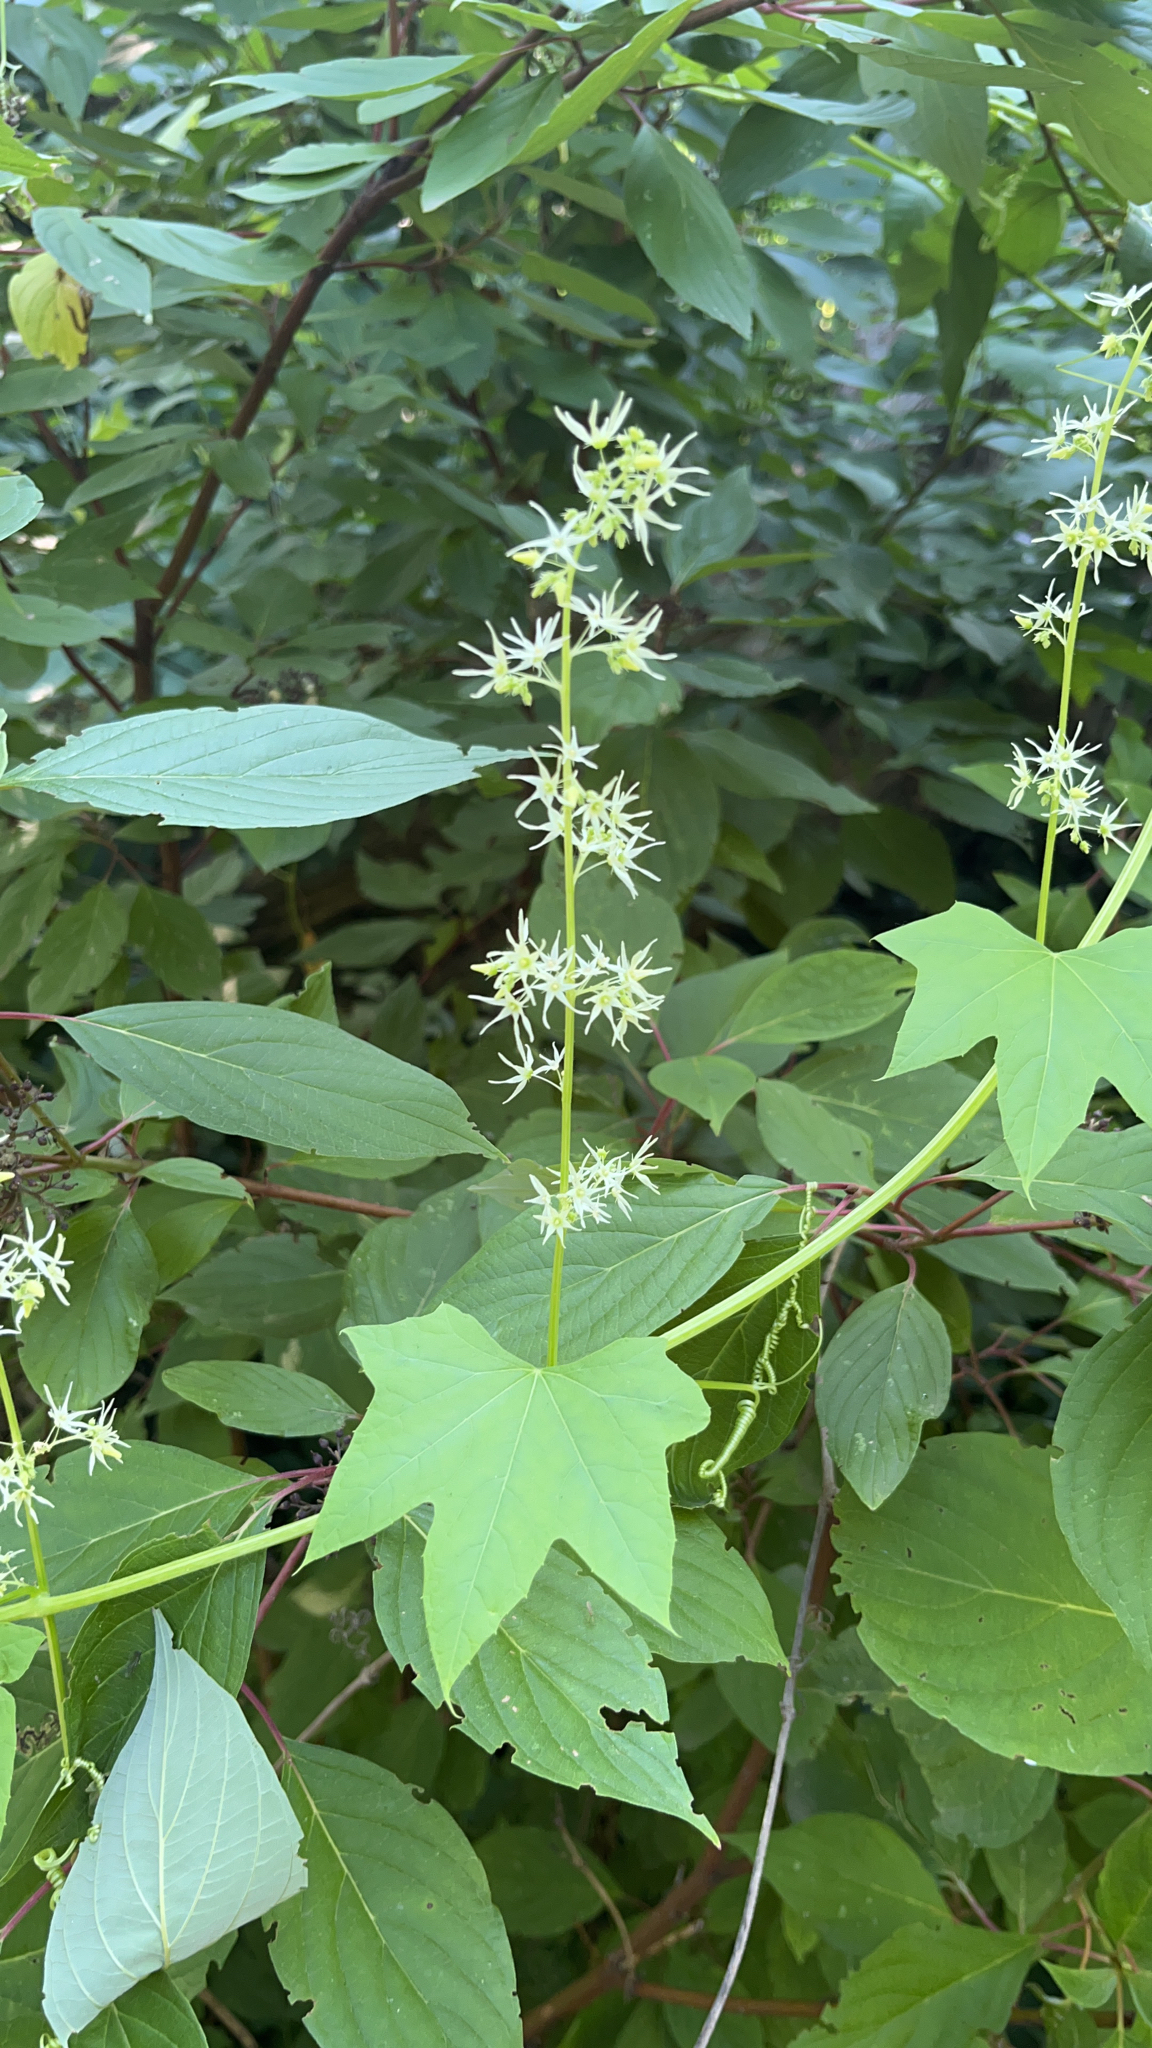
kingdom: Plantae
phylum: Tracheophyta
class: Magnoliopsida
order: Cucurbitales
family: Cucurbitaceae
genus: Echinocystis
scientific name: Echinocystis lobata
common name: Wild cucumber
